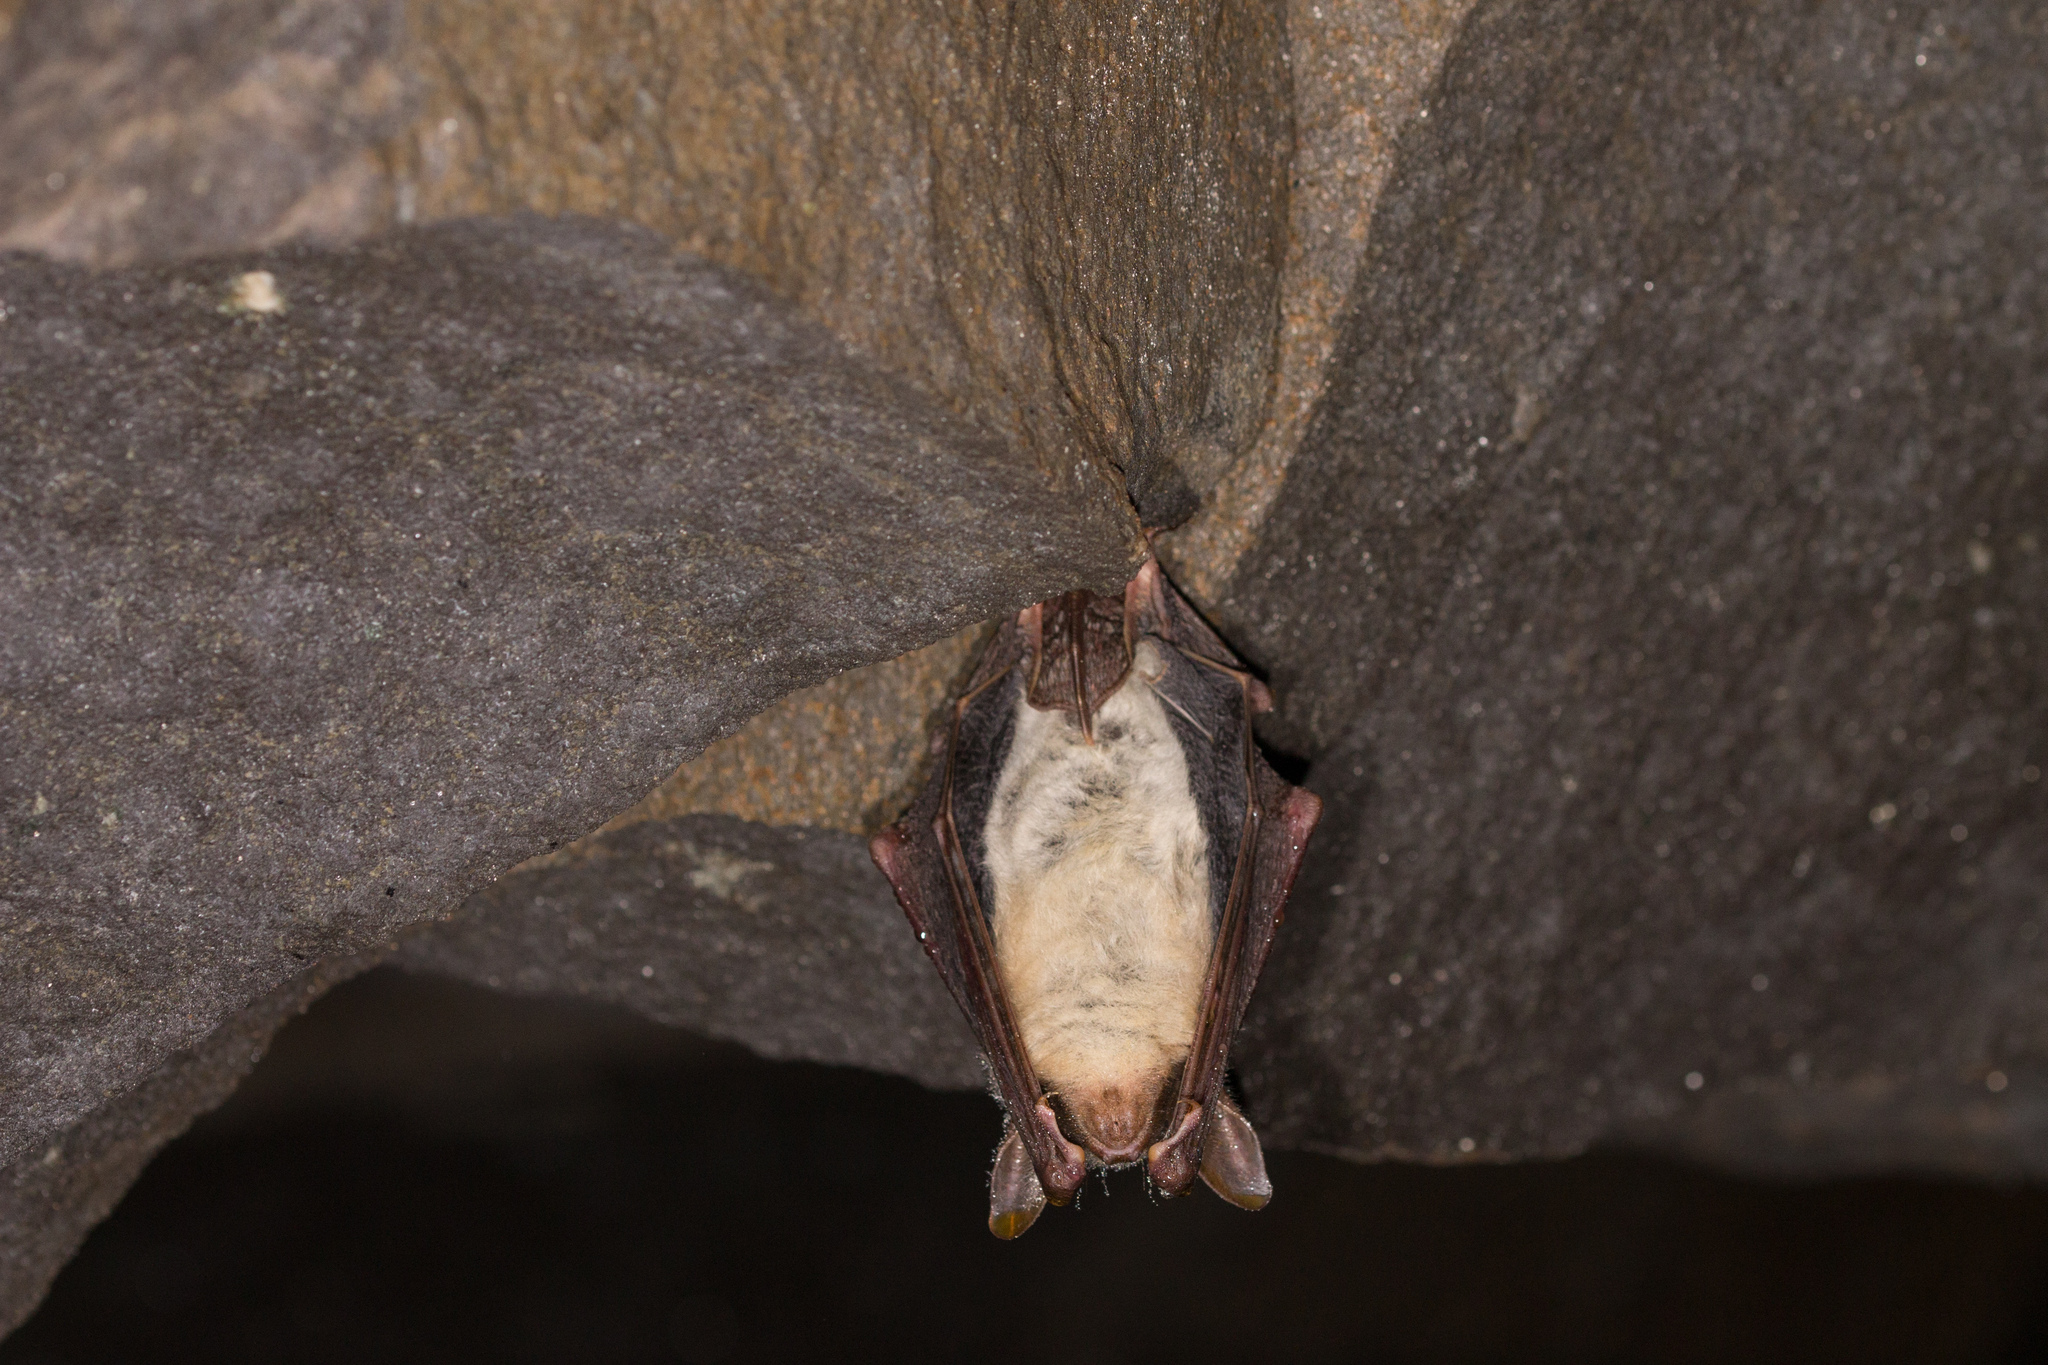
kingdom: Animalia
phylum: Chordata
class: Mammalia
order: Chiroptera
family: Vespertilionidae
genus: Myotis
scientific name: Myotis myotis
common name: Greater mouse-eared bat
